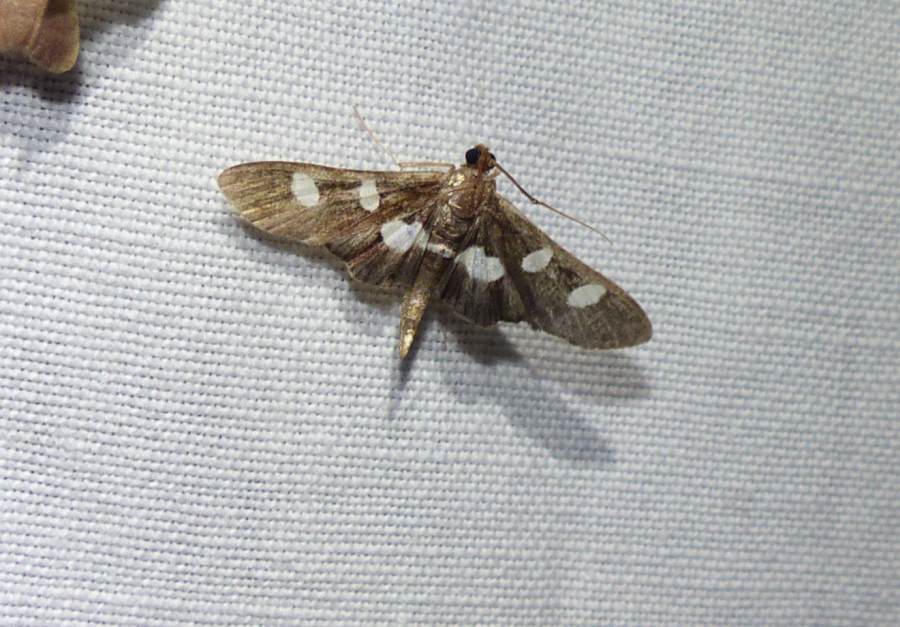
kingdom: Animalia
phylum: Arthropoda
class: Insecta
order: Lepidoptera
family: Crambidae
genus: Desmia
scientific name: Desmia
